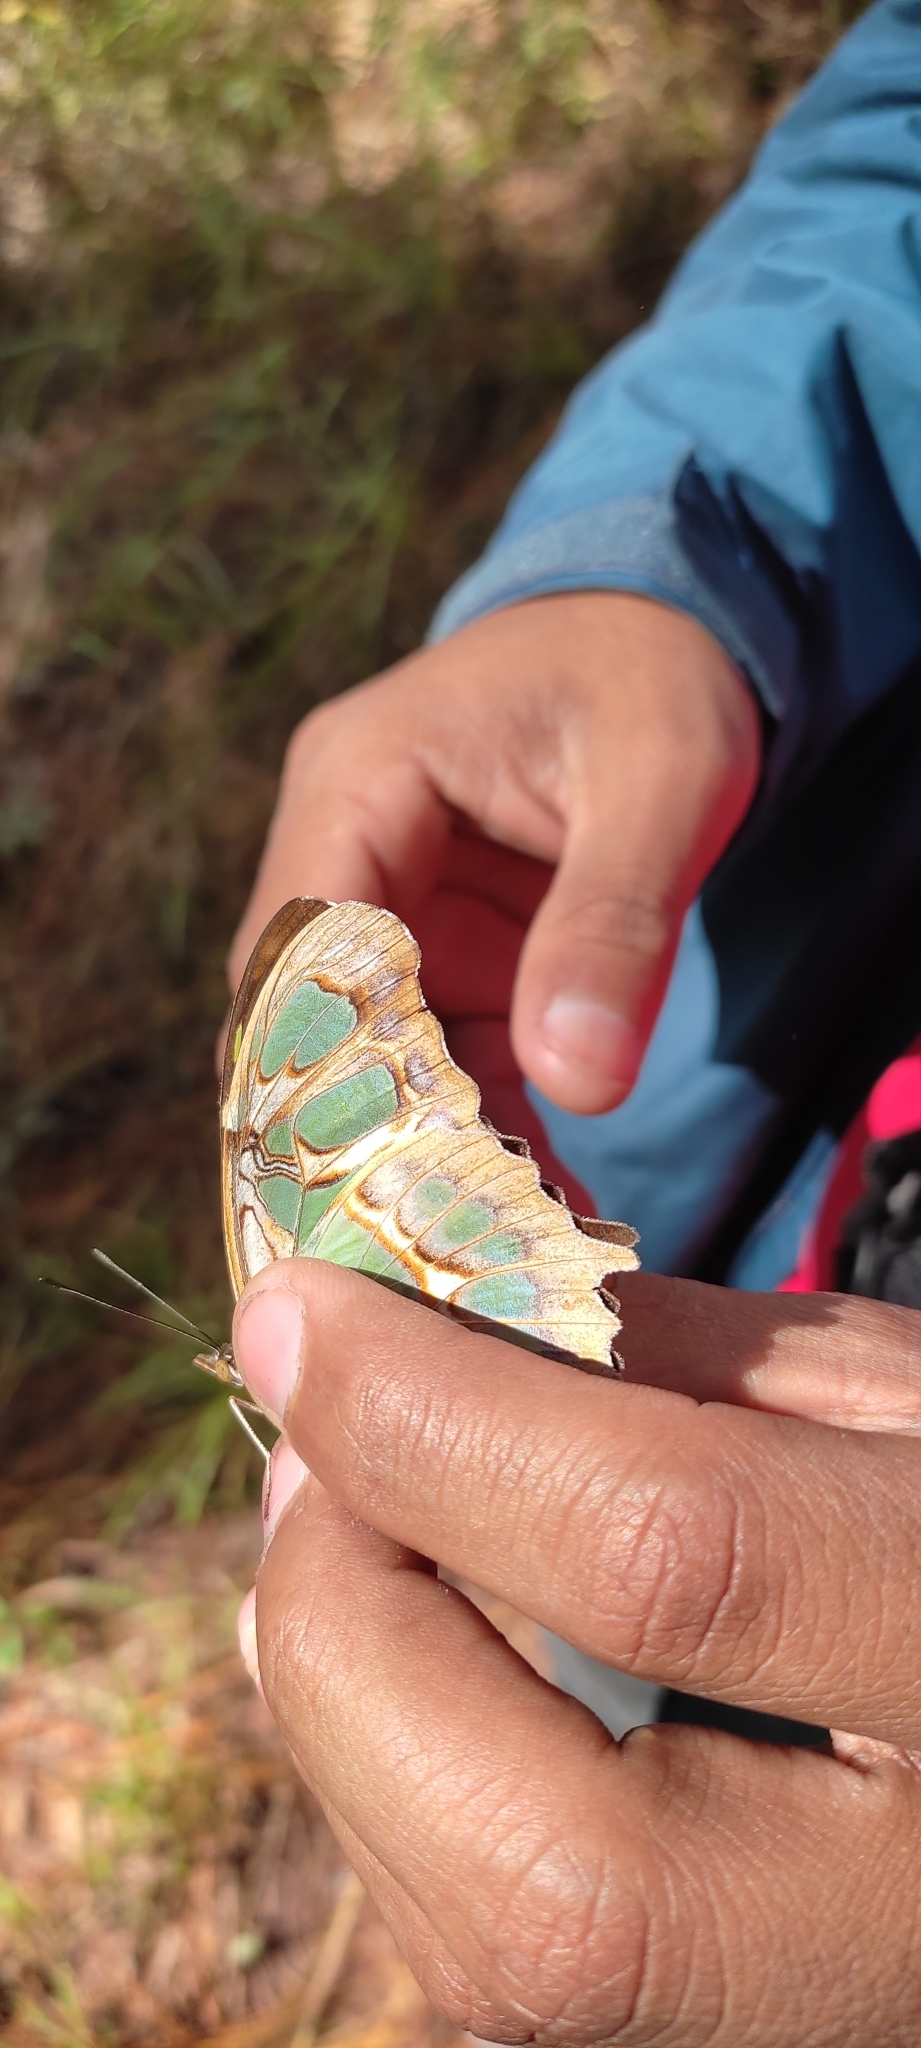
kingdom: Animalia
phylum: Arthropoda
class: Insecta
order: Lepidoptera
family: Nymphalidae
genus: Siproeta
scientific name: Siproeta stelenes
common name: Malachite
